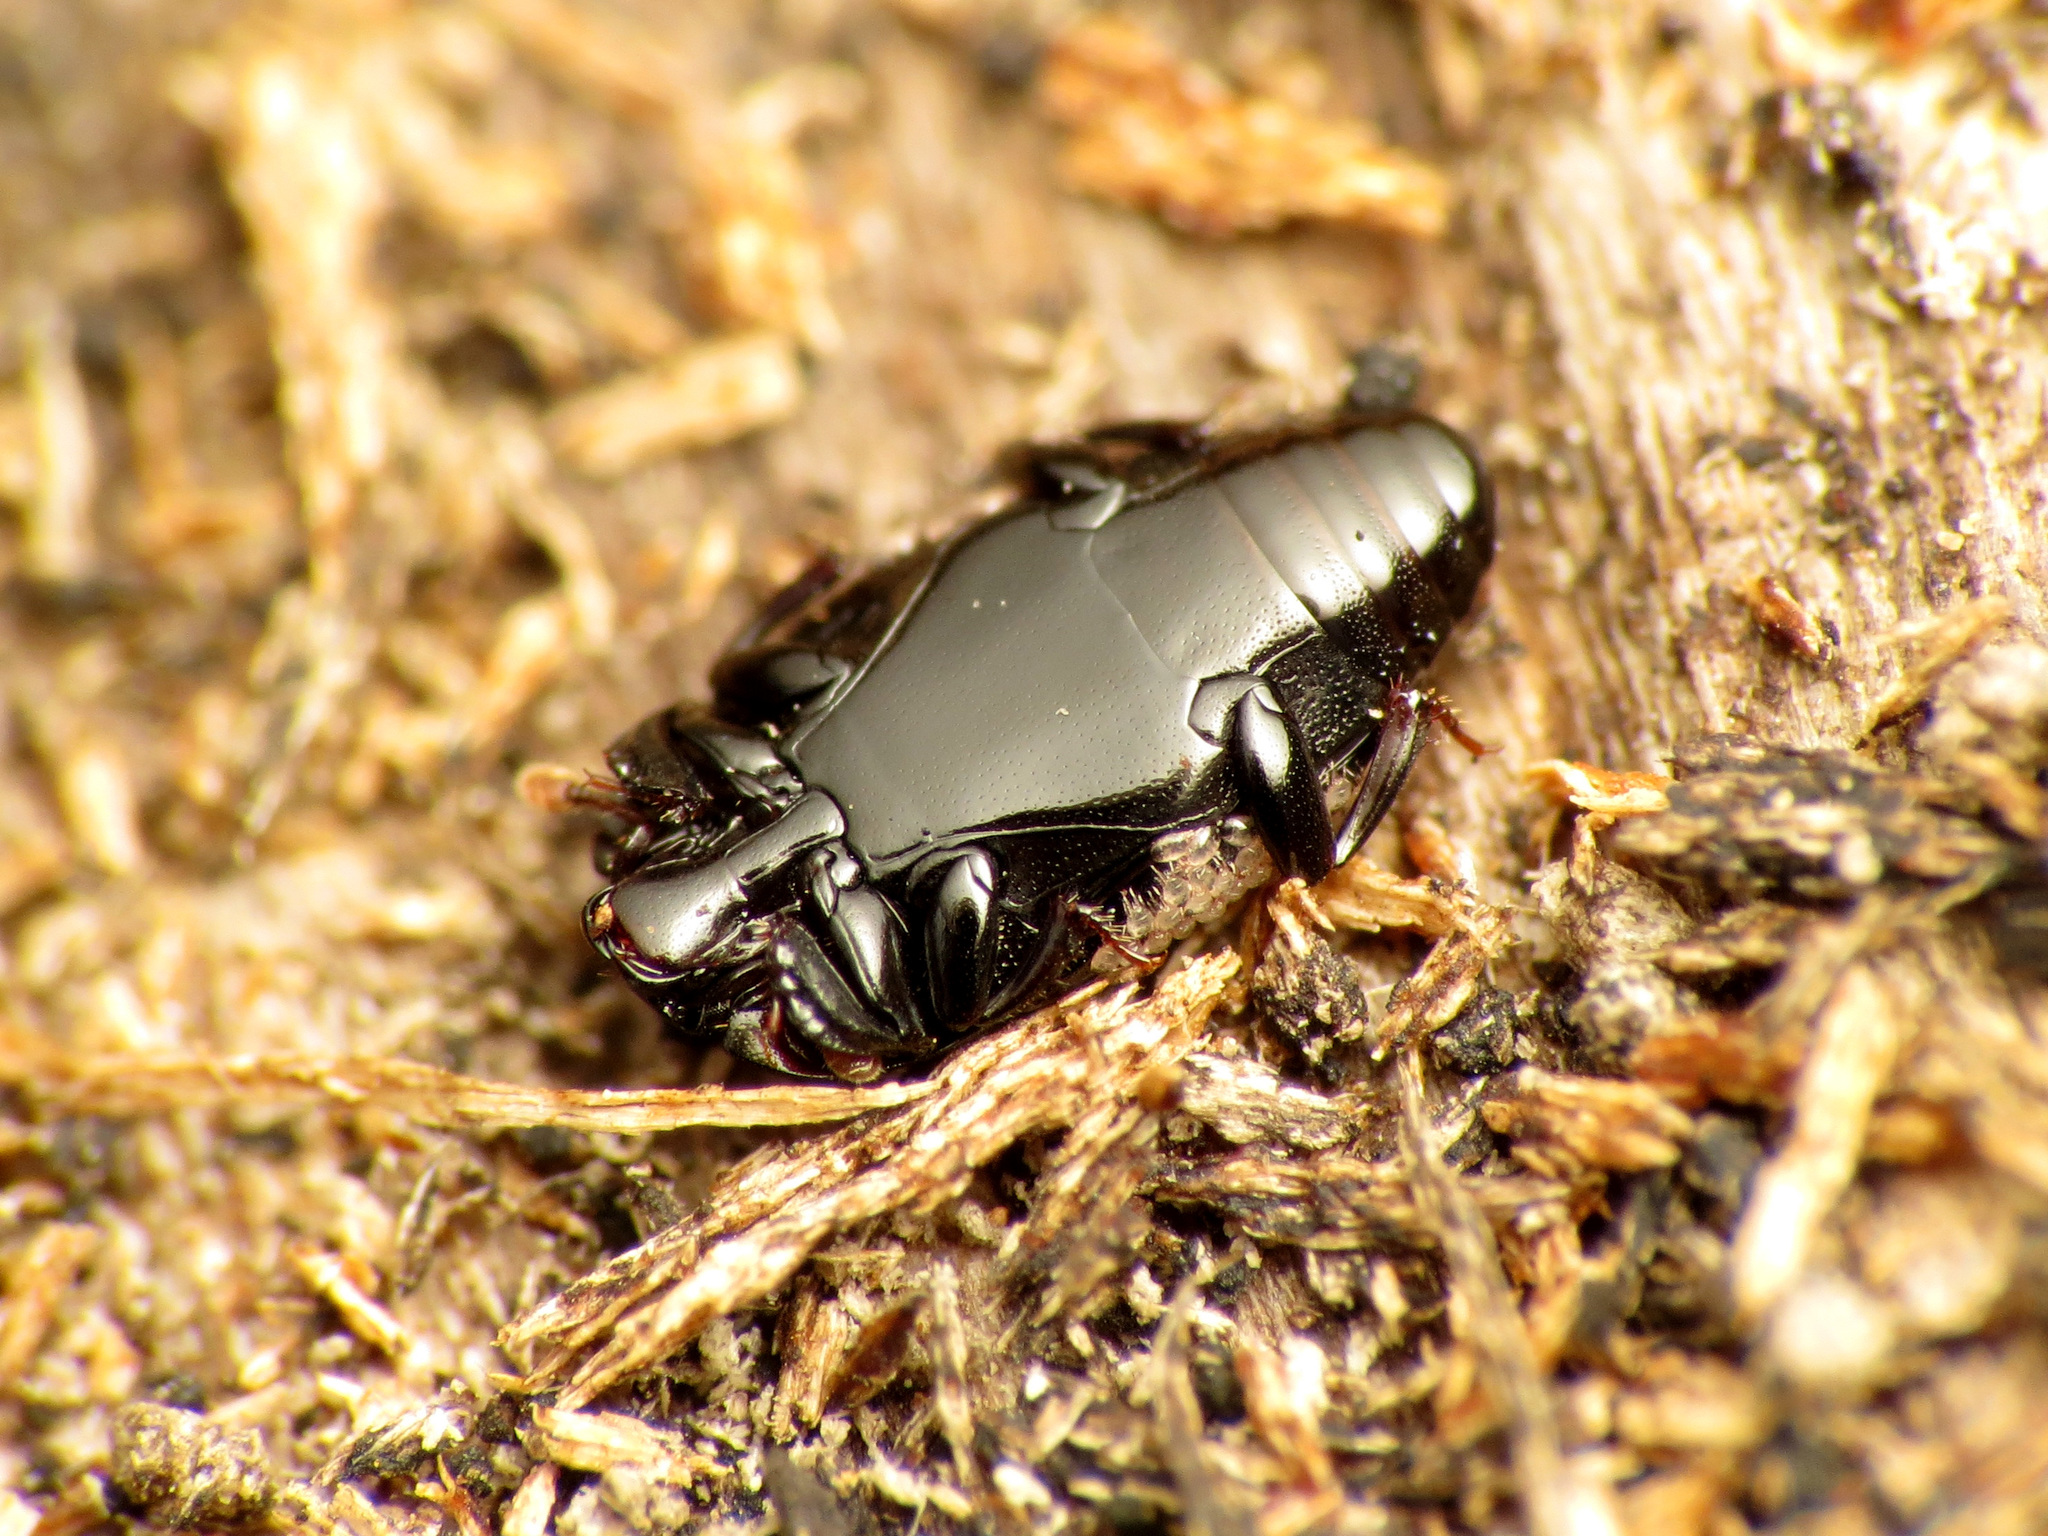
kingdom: Animalia
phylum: Arthropoda
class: Insecta
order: Coleoptera
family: Histeridae
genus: Platylomalus
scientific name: Platylomalus aequalis
